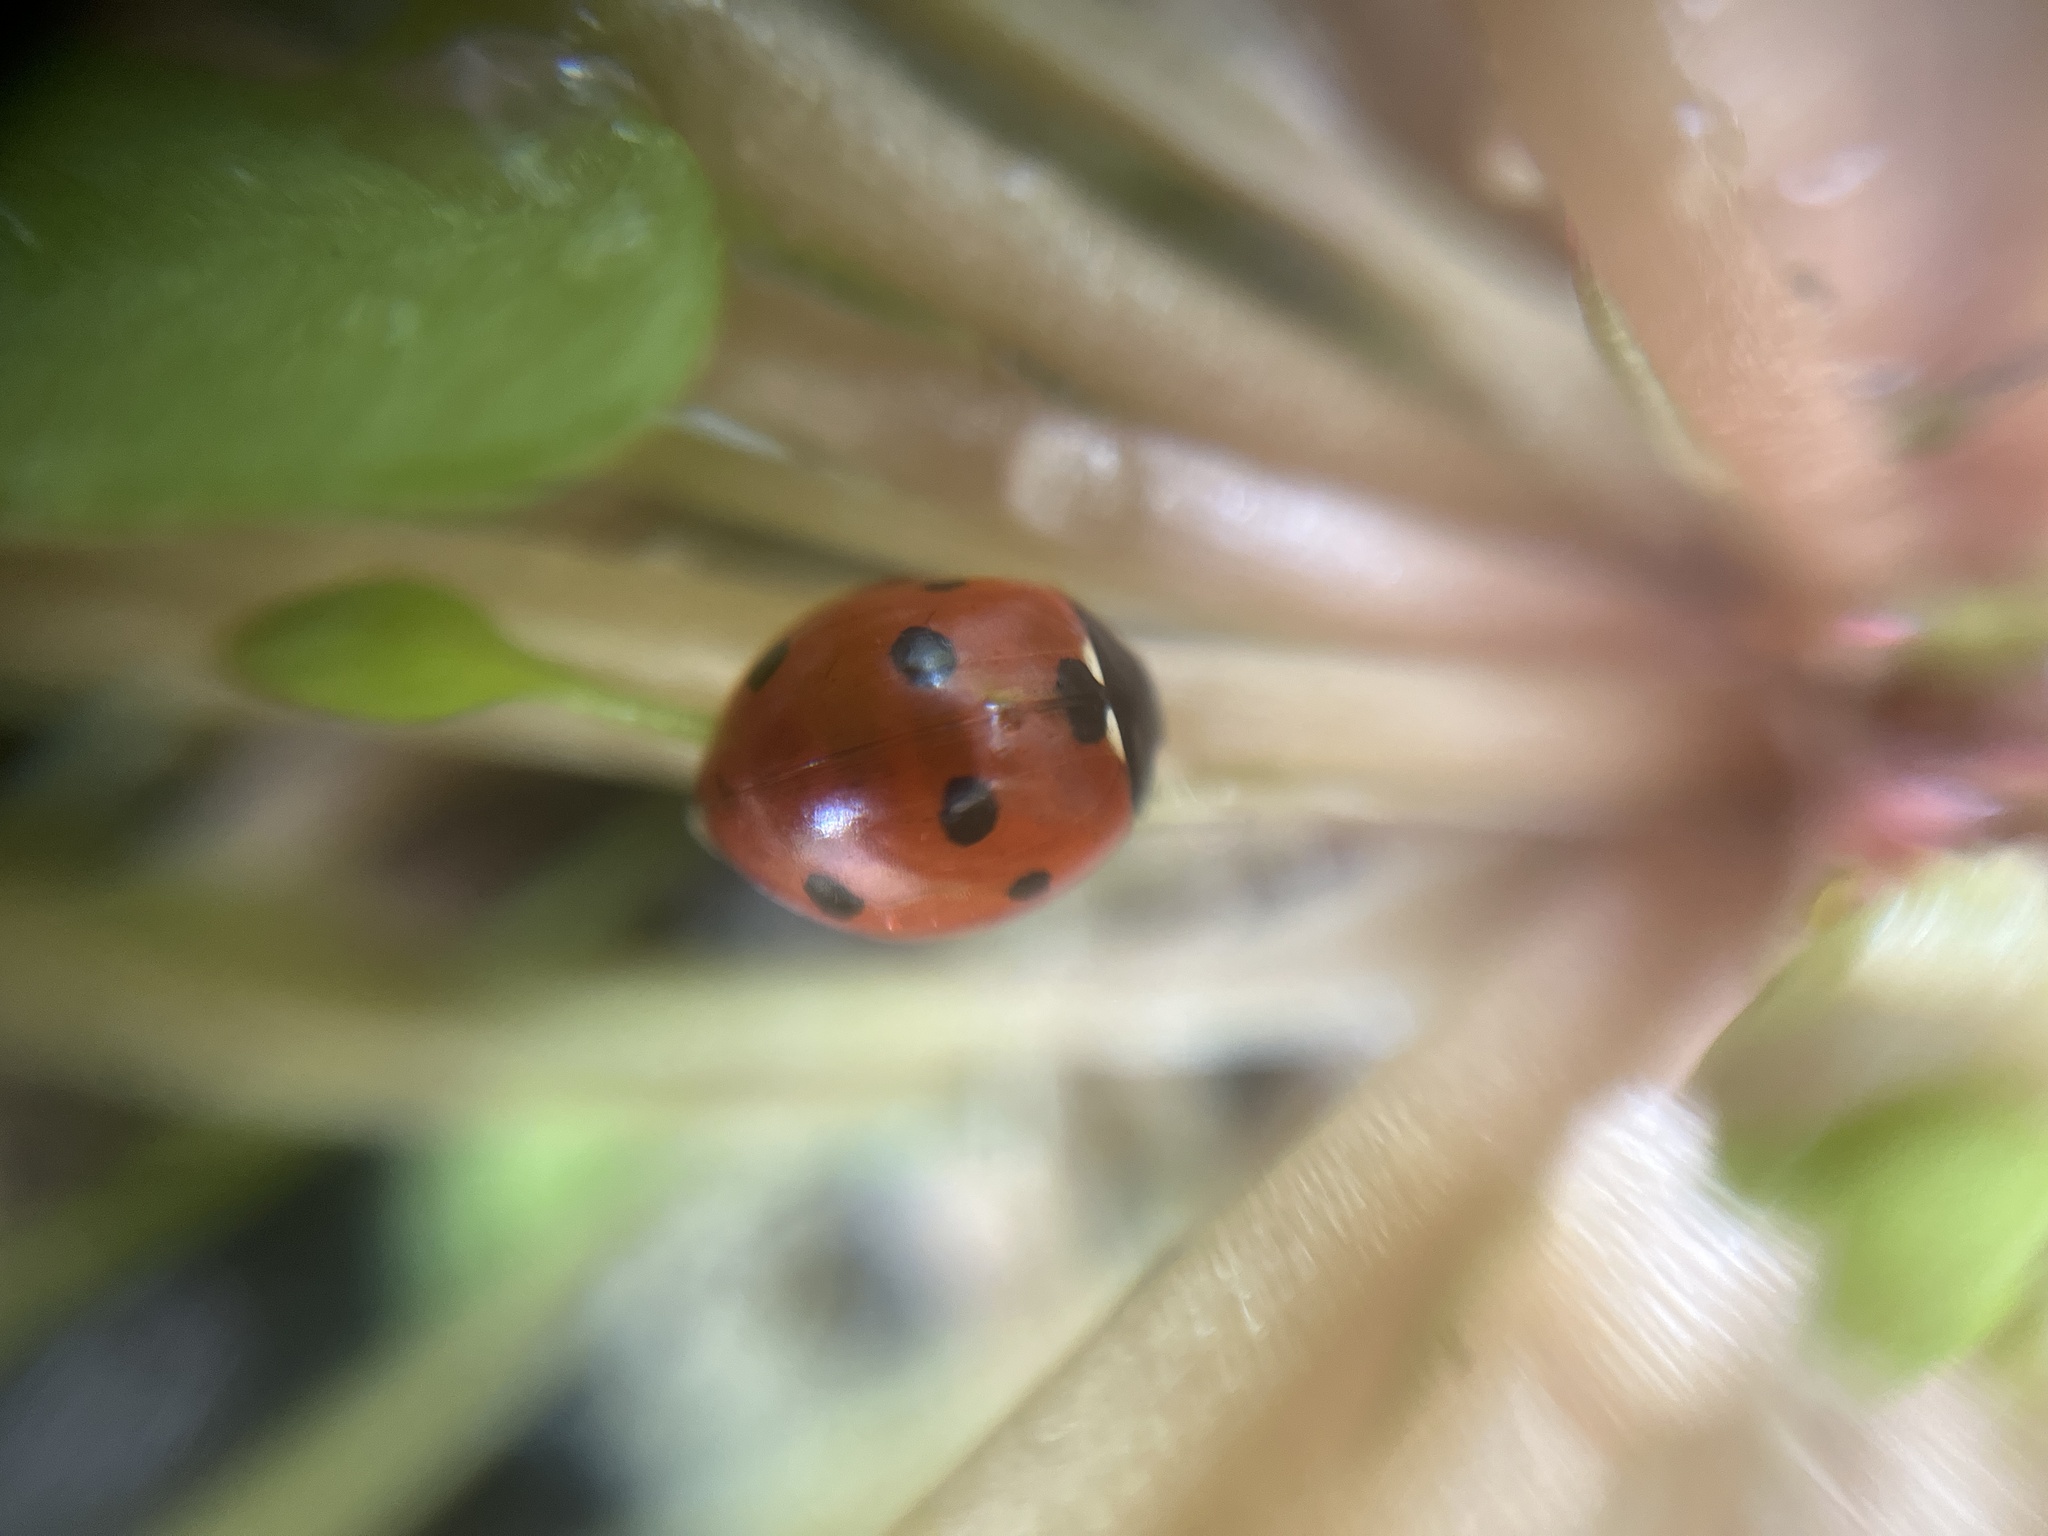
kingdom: Animalia
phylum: Arthropoda
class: Insecta
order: Coleoptera
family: Coccinellidae
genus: Coccinella
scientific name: Coccinella septempunctata
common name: Sevenspotted lady beetle
